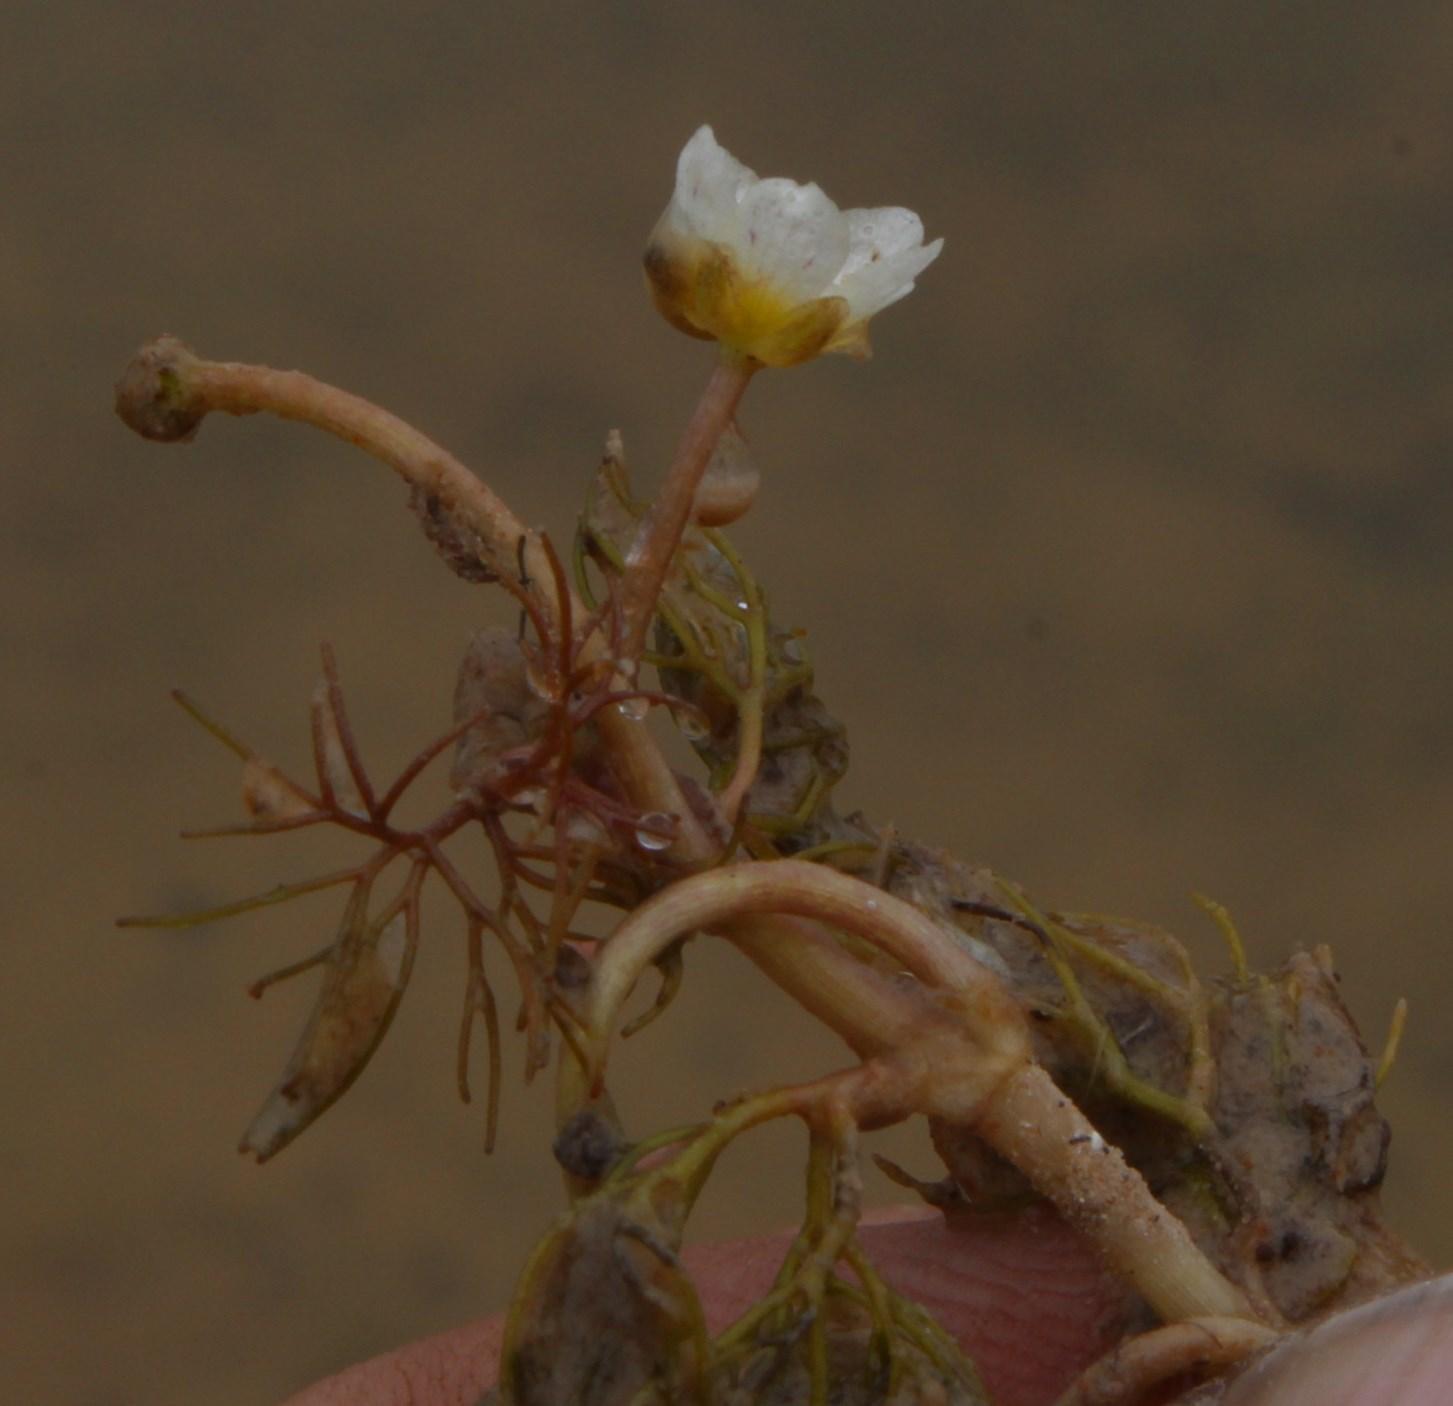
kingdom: Plantae
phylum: Tracheophyta
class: Magnoliopsida
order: Ranunculales
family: Ranunculaceae
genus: Ranunculus
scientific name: Ranunculus rionii
